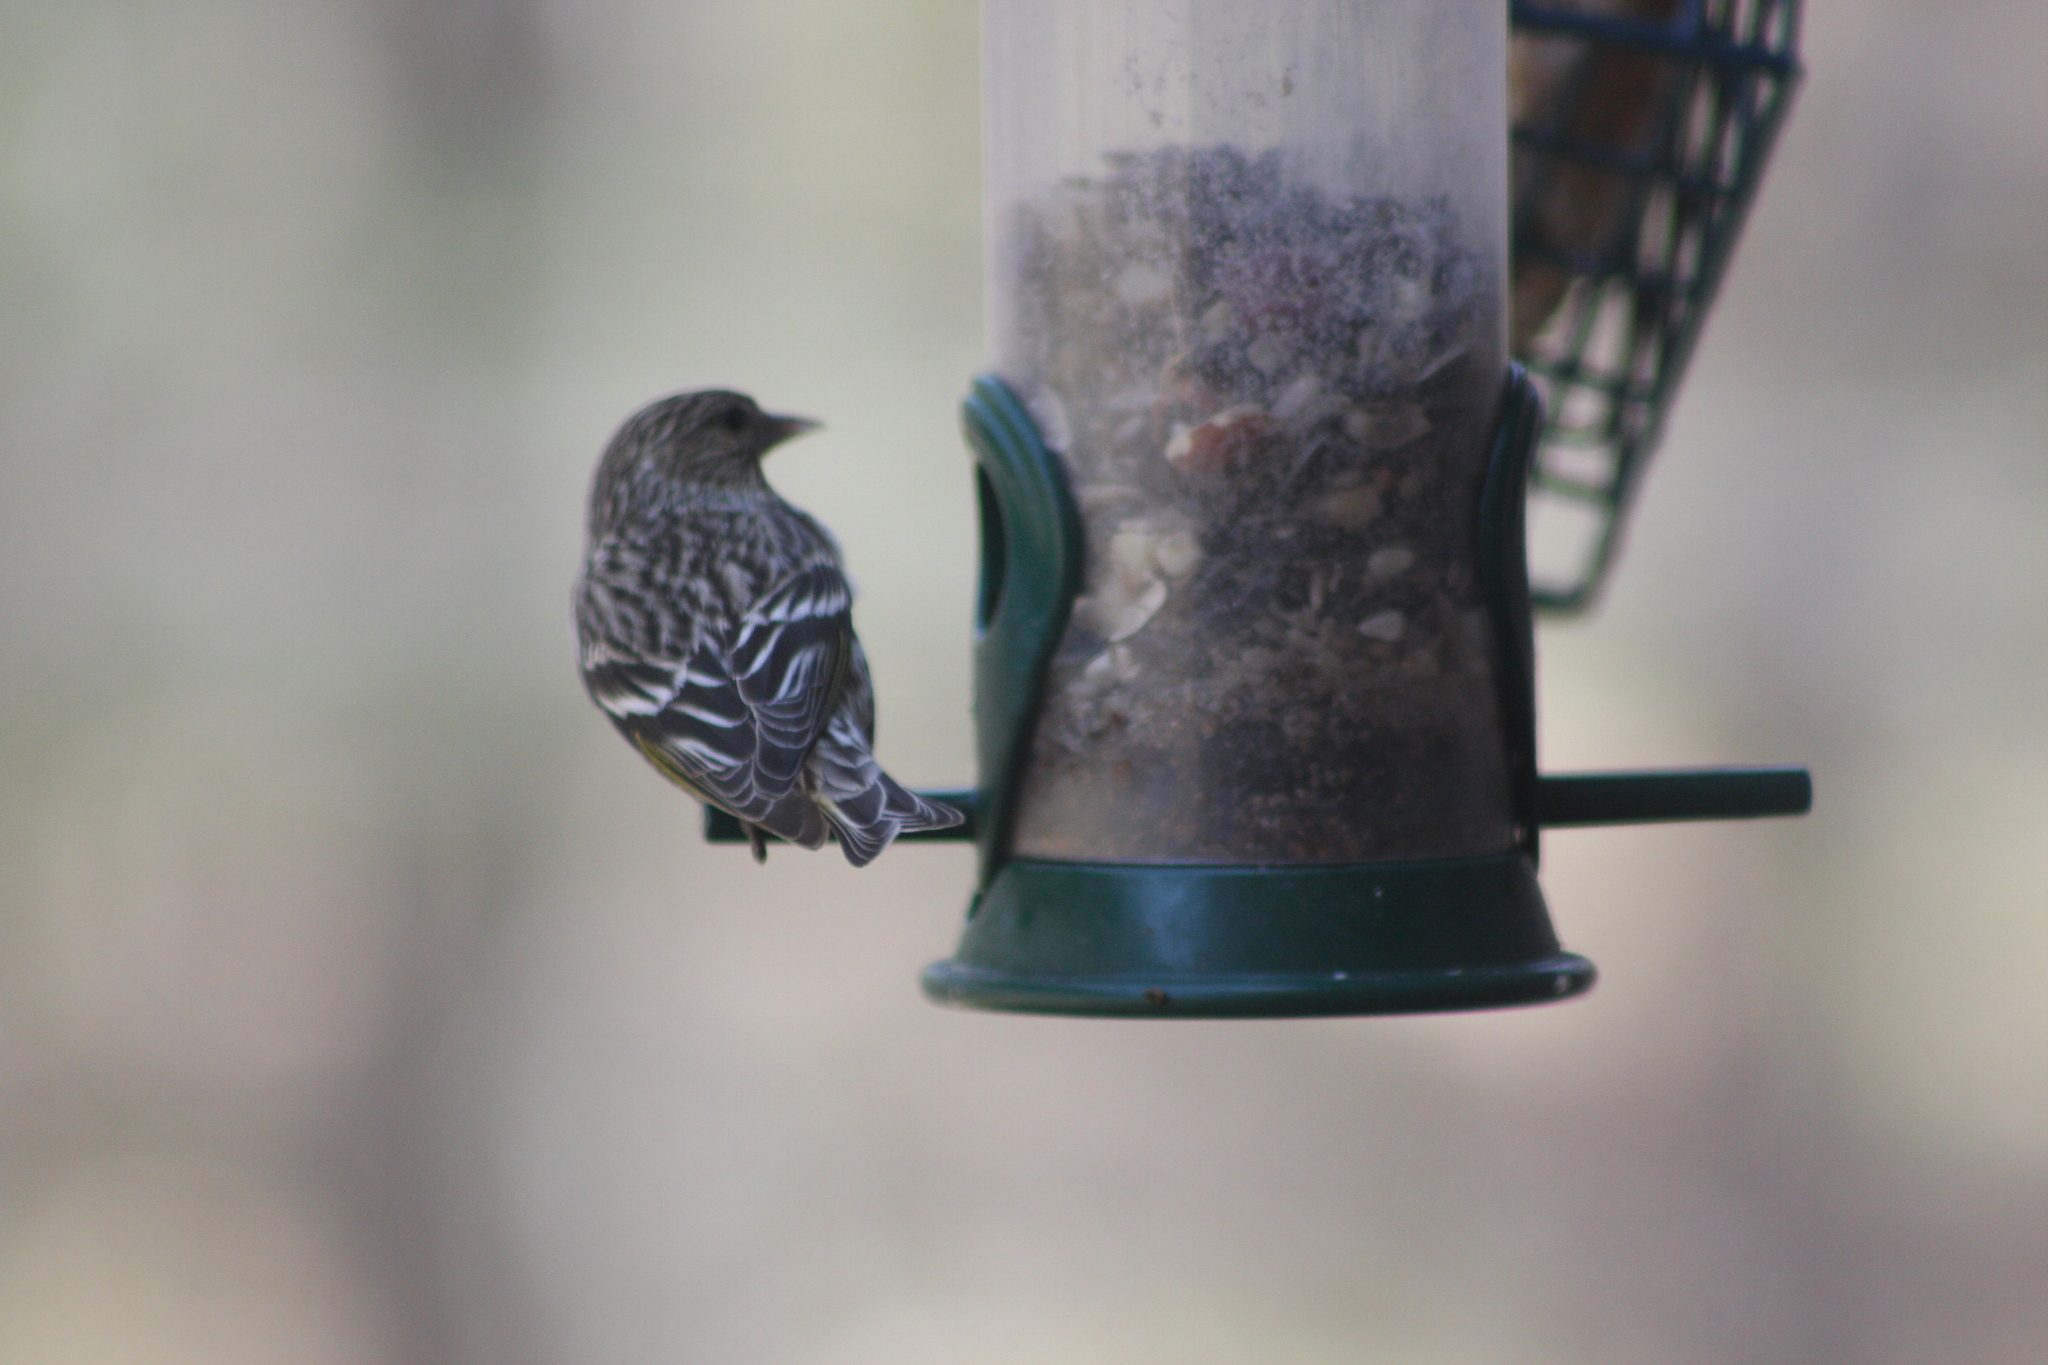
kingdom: Animalia
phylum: Chordata
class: Aves
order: Passeriformes
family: Fringillidae
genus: Spinus
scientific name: Spinus pinus
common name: Pine siskin
